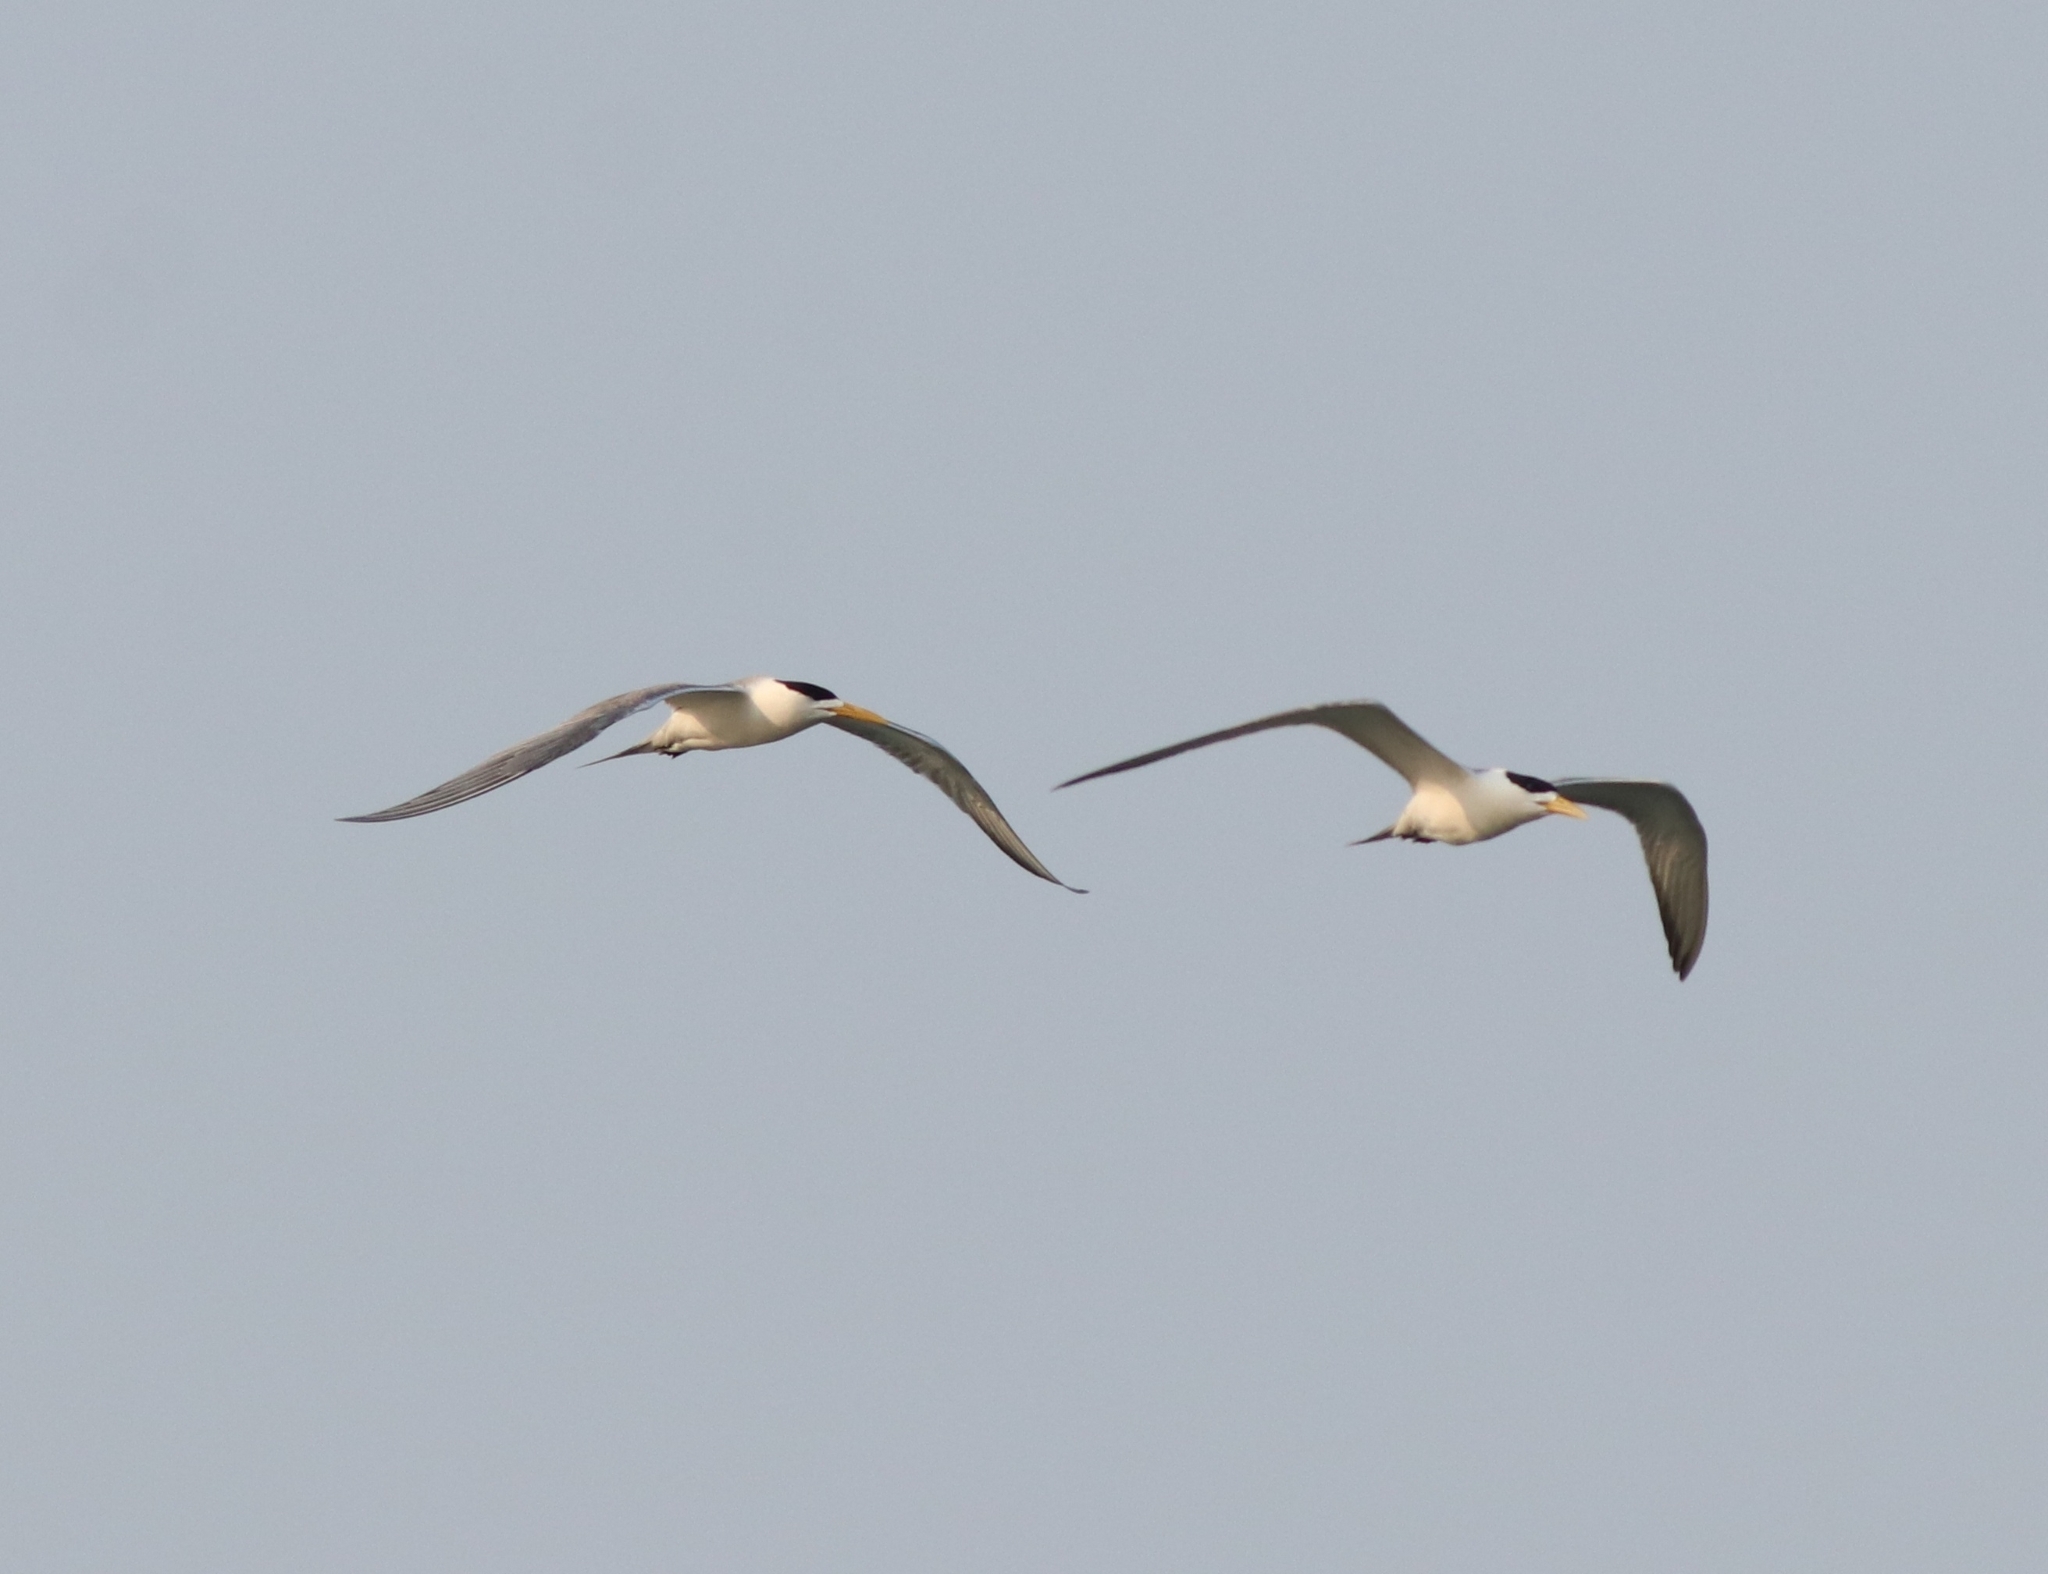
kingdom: Animalia
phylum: Chordata
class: Aves
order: Charadriiformes
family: Laridae
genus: Thalasseus
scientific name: Thalasseus bergii
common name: Greater crested tern
